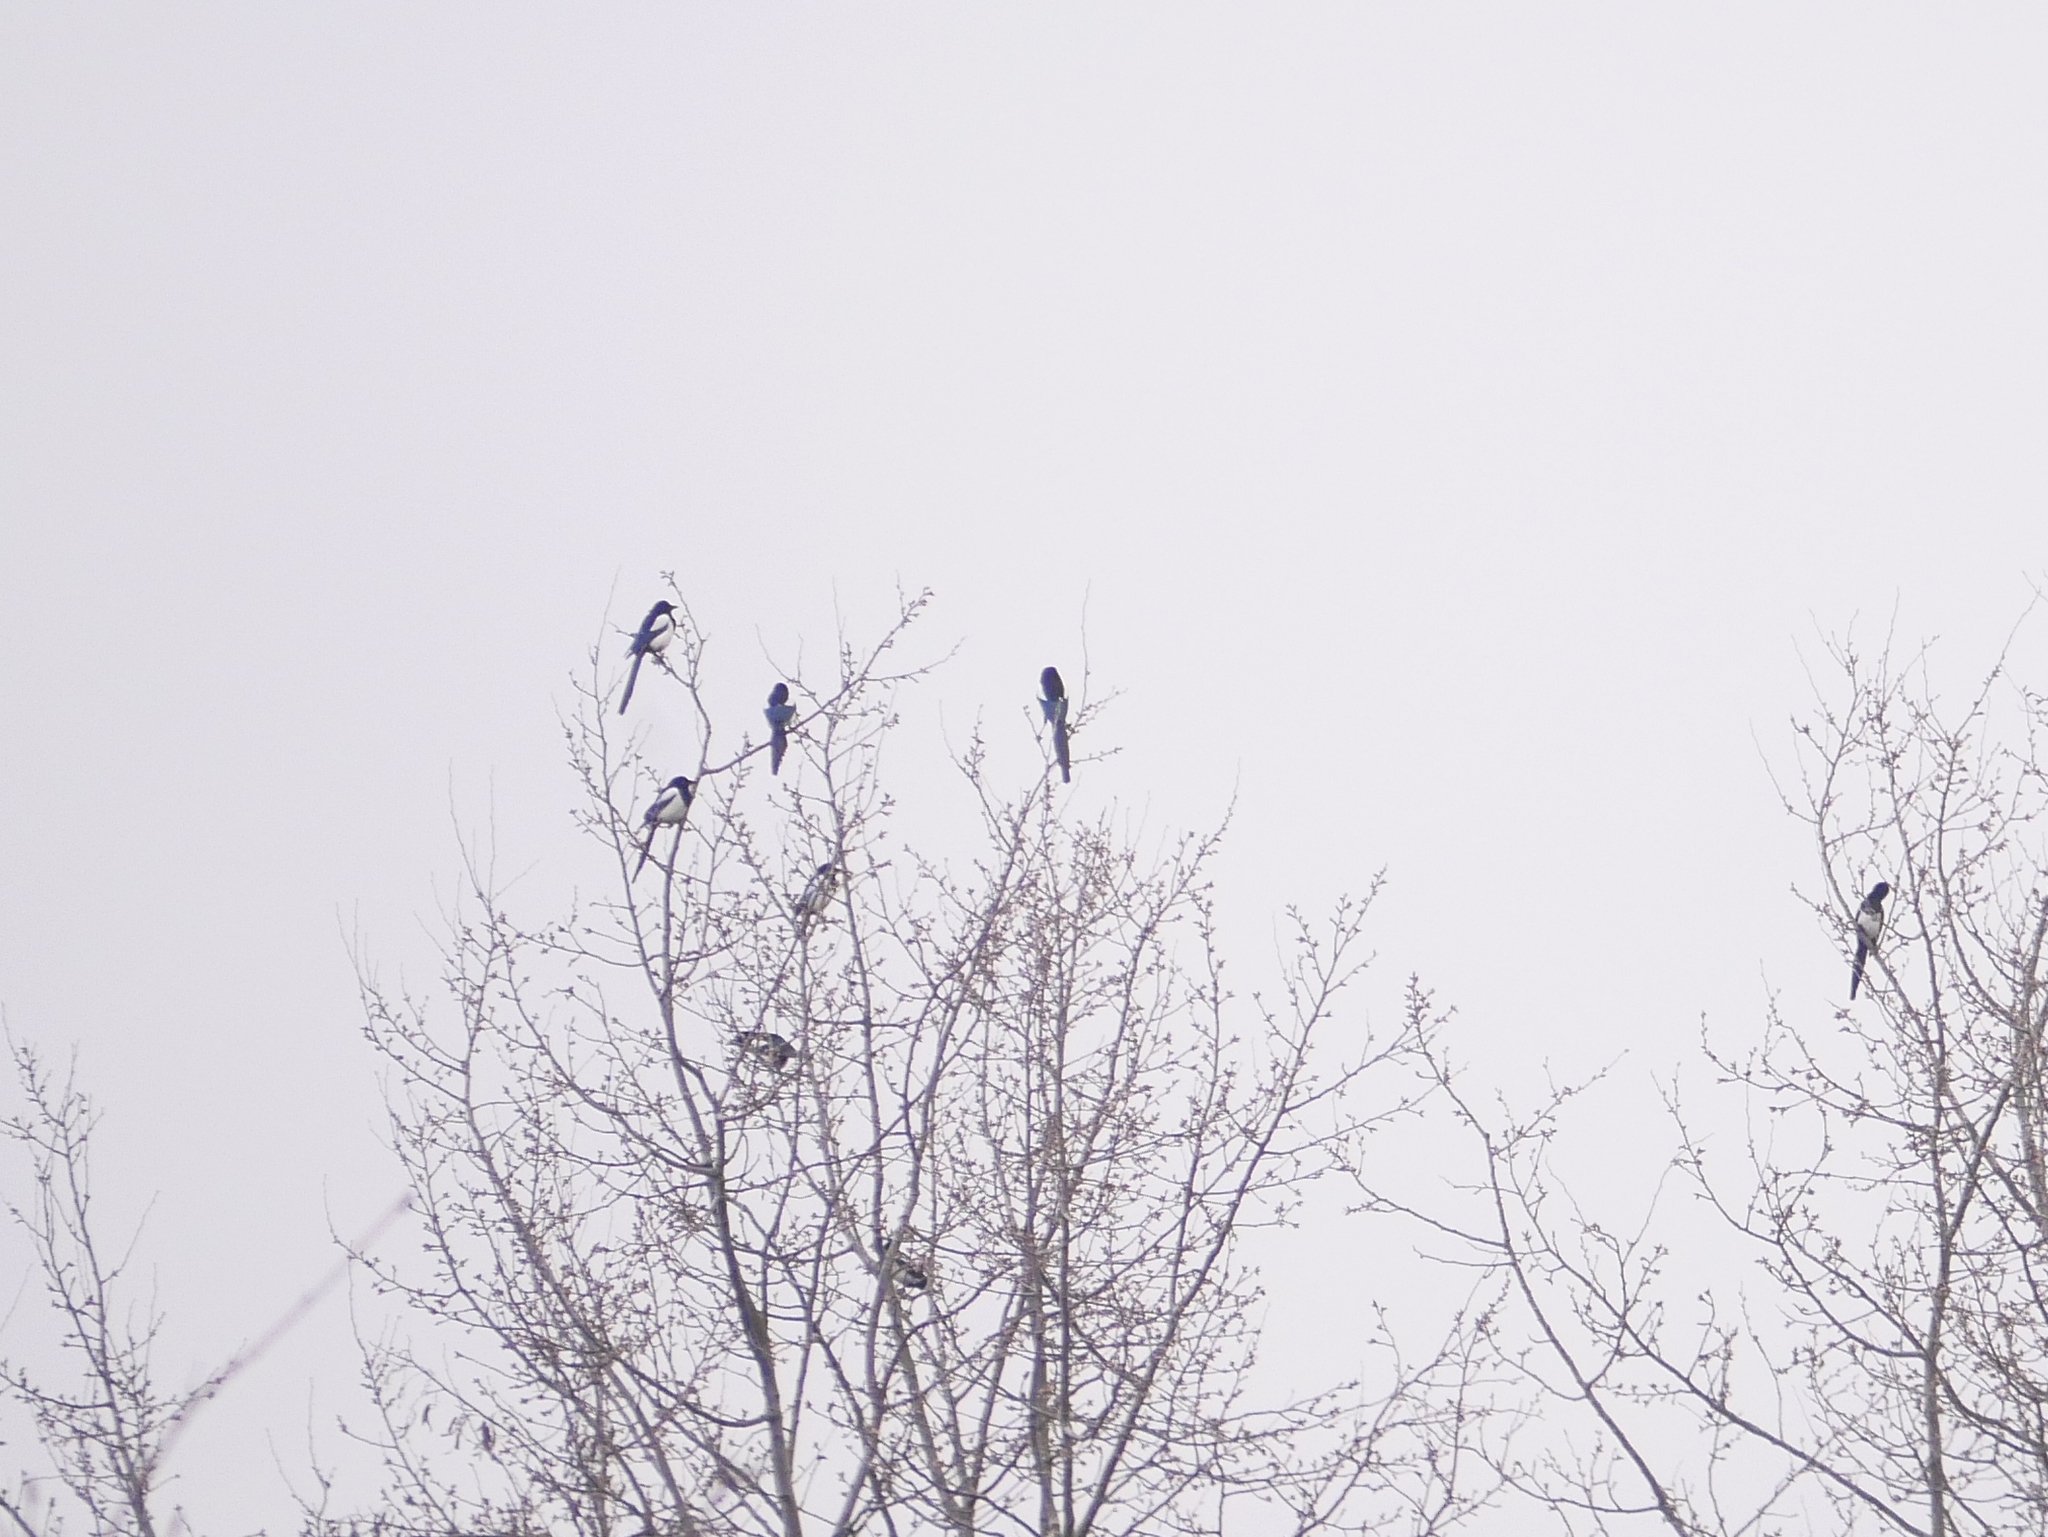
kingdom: Animalia
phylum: Chordata
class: Aves
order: Passeriformes
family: Corvidae
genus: Pica
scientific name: Pica pica
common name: Eurasian magpie
